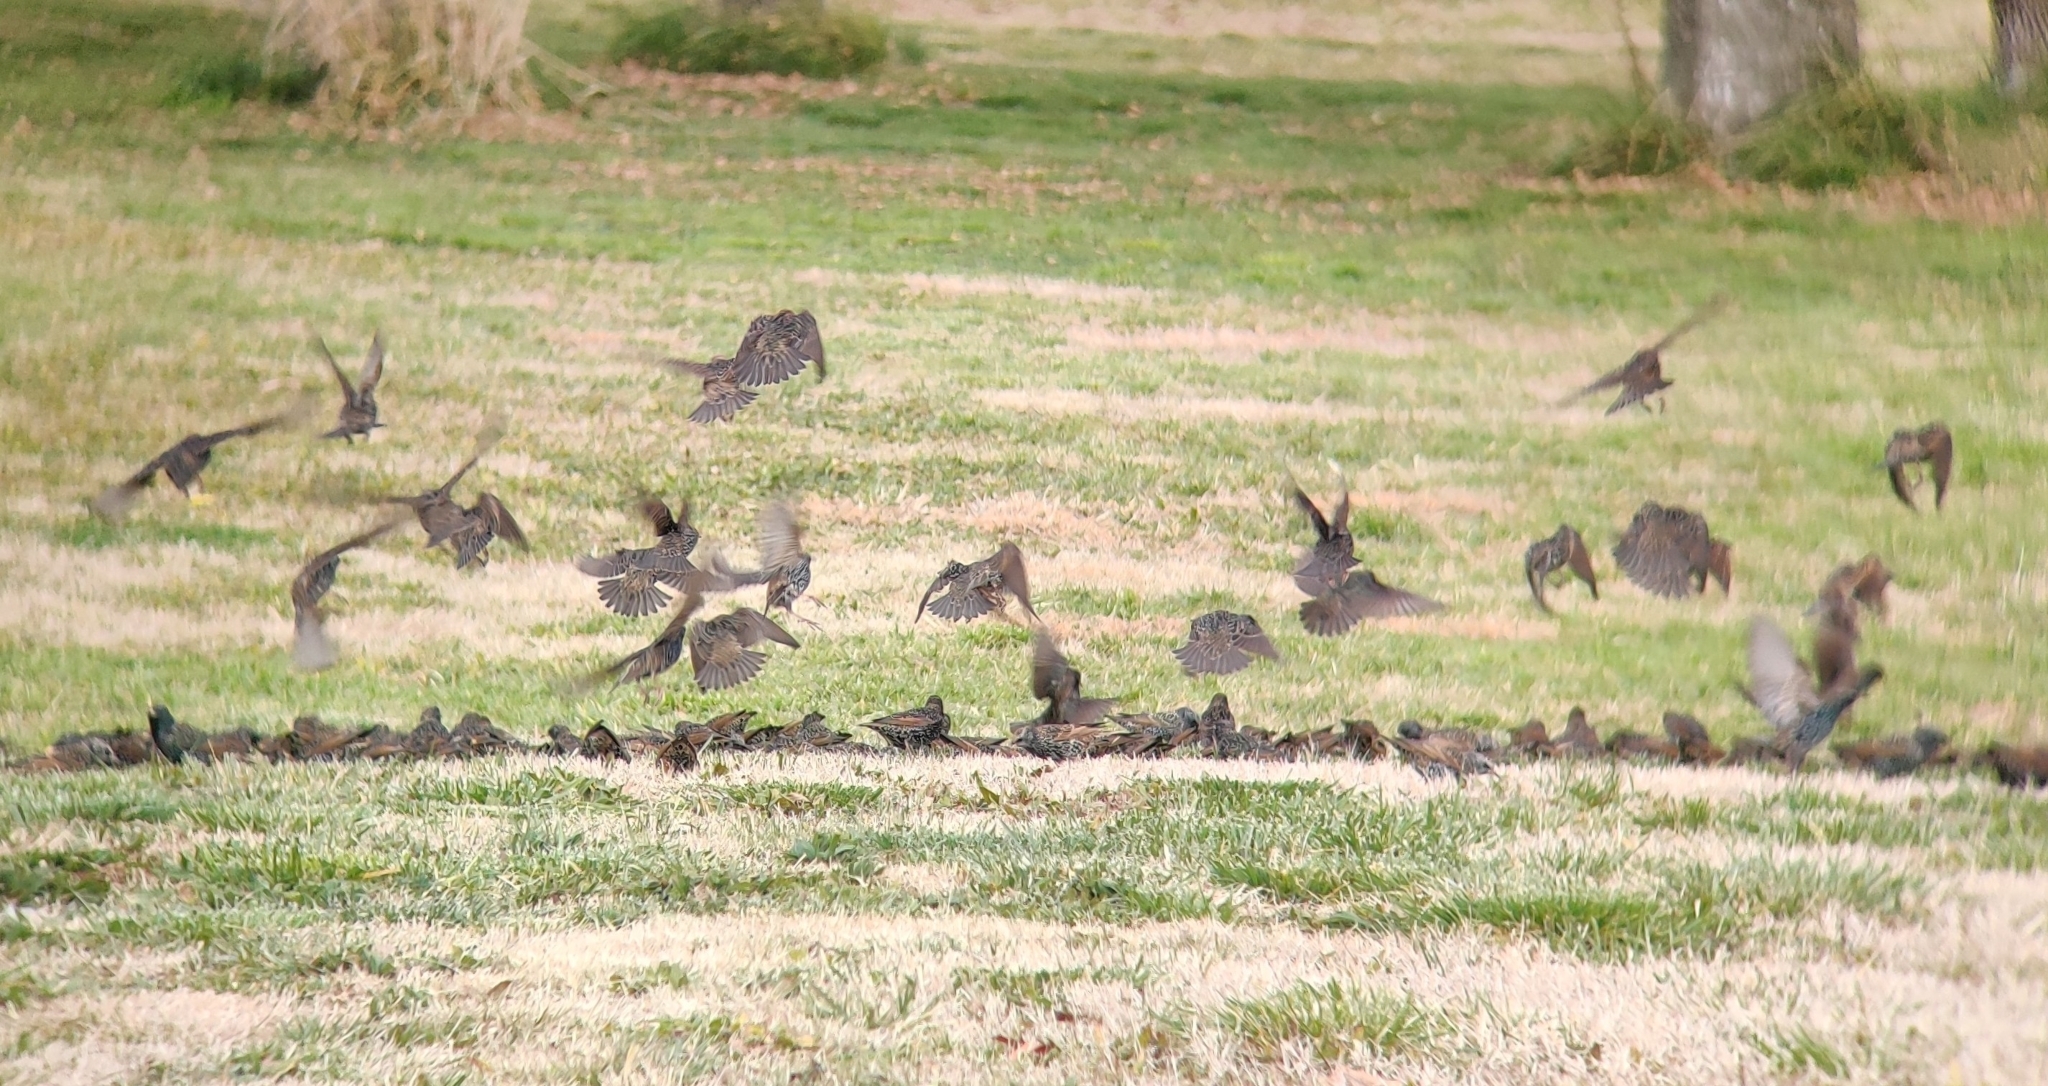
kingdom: Animalia
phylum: Chordata
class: Aves
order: Passeriformes
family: Sturnidae
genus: Sturnus
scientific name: Sturnus vulgaris
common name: Common starling
